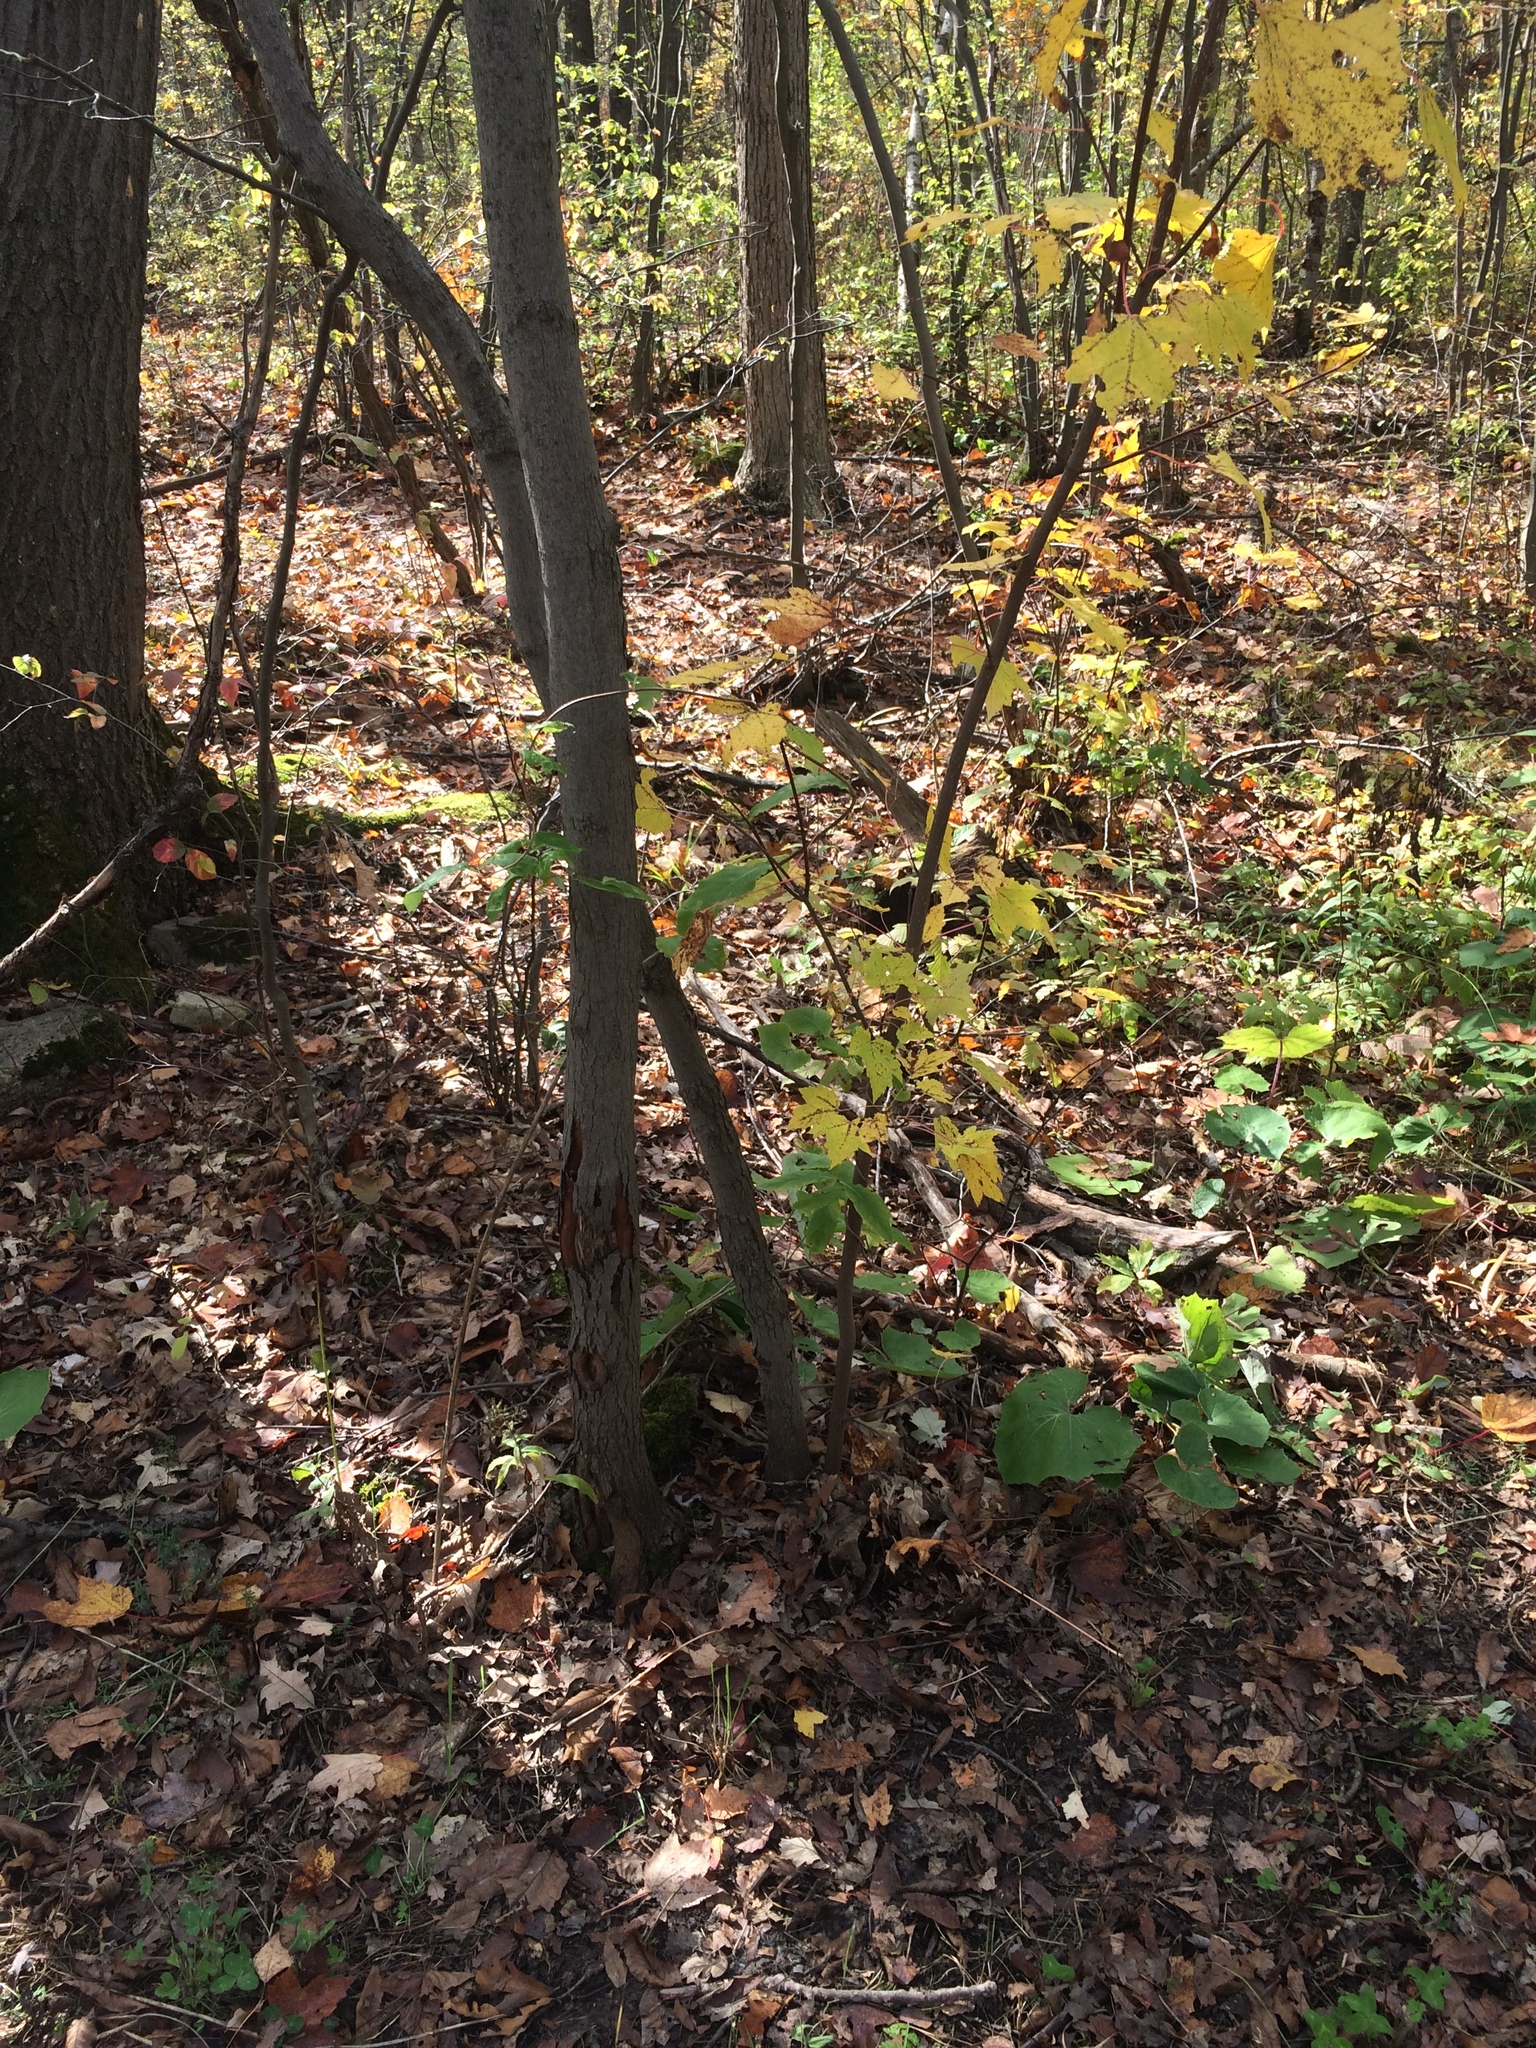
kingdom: Plantae
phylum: Tracheophyta
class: Magnoliopsida
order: Dipsacales
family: Caprifoliaceae
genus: Lonicera
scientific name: Lonicera dioica
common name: Limber honeysuckle
